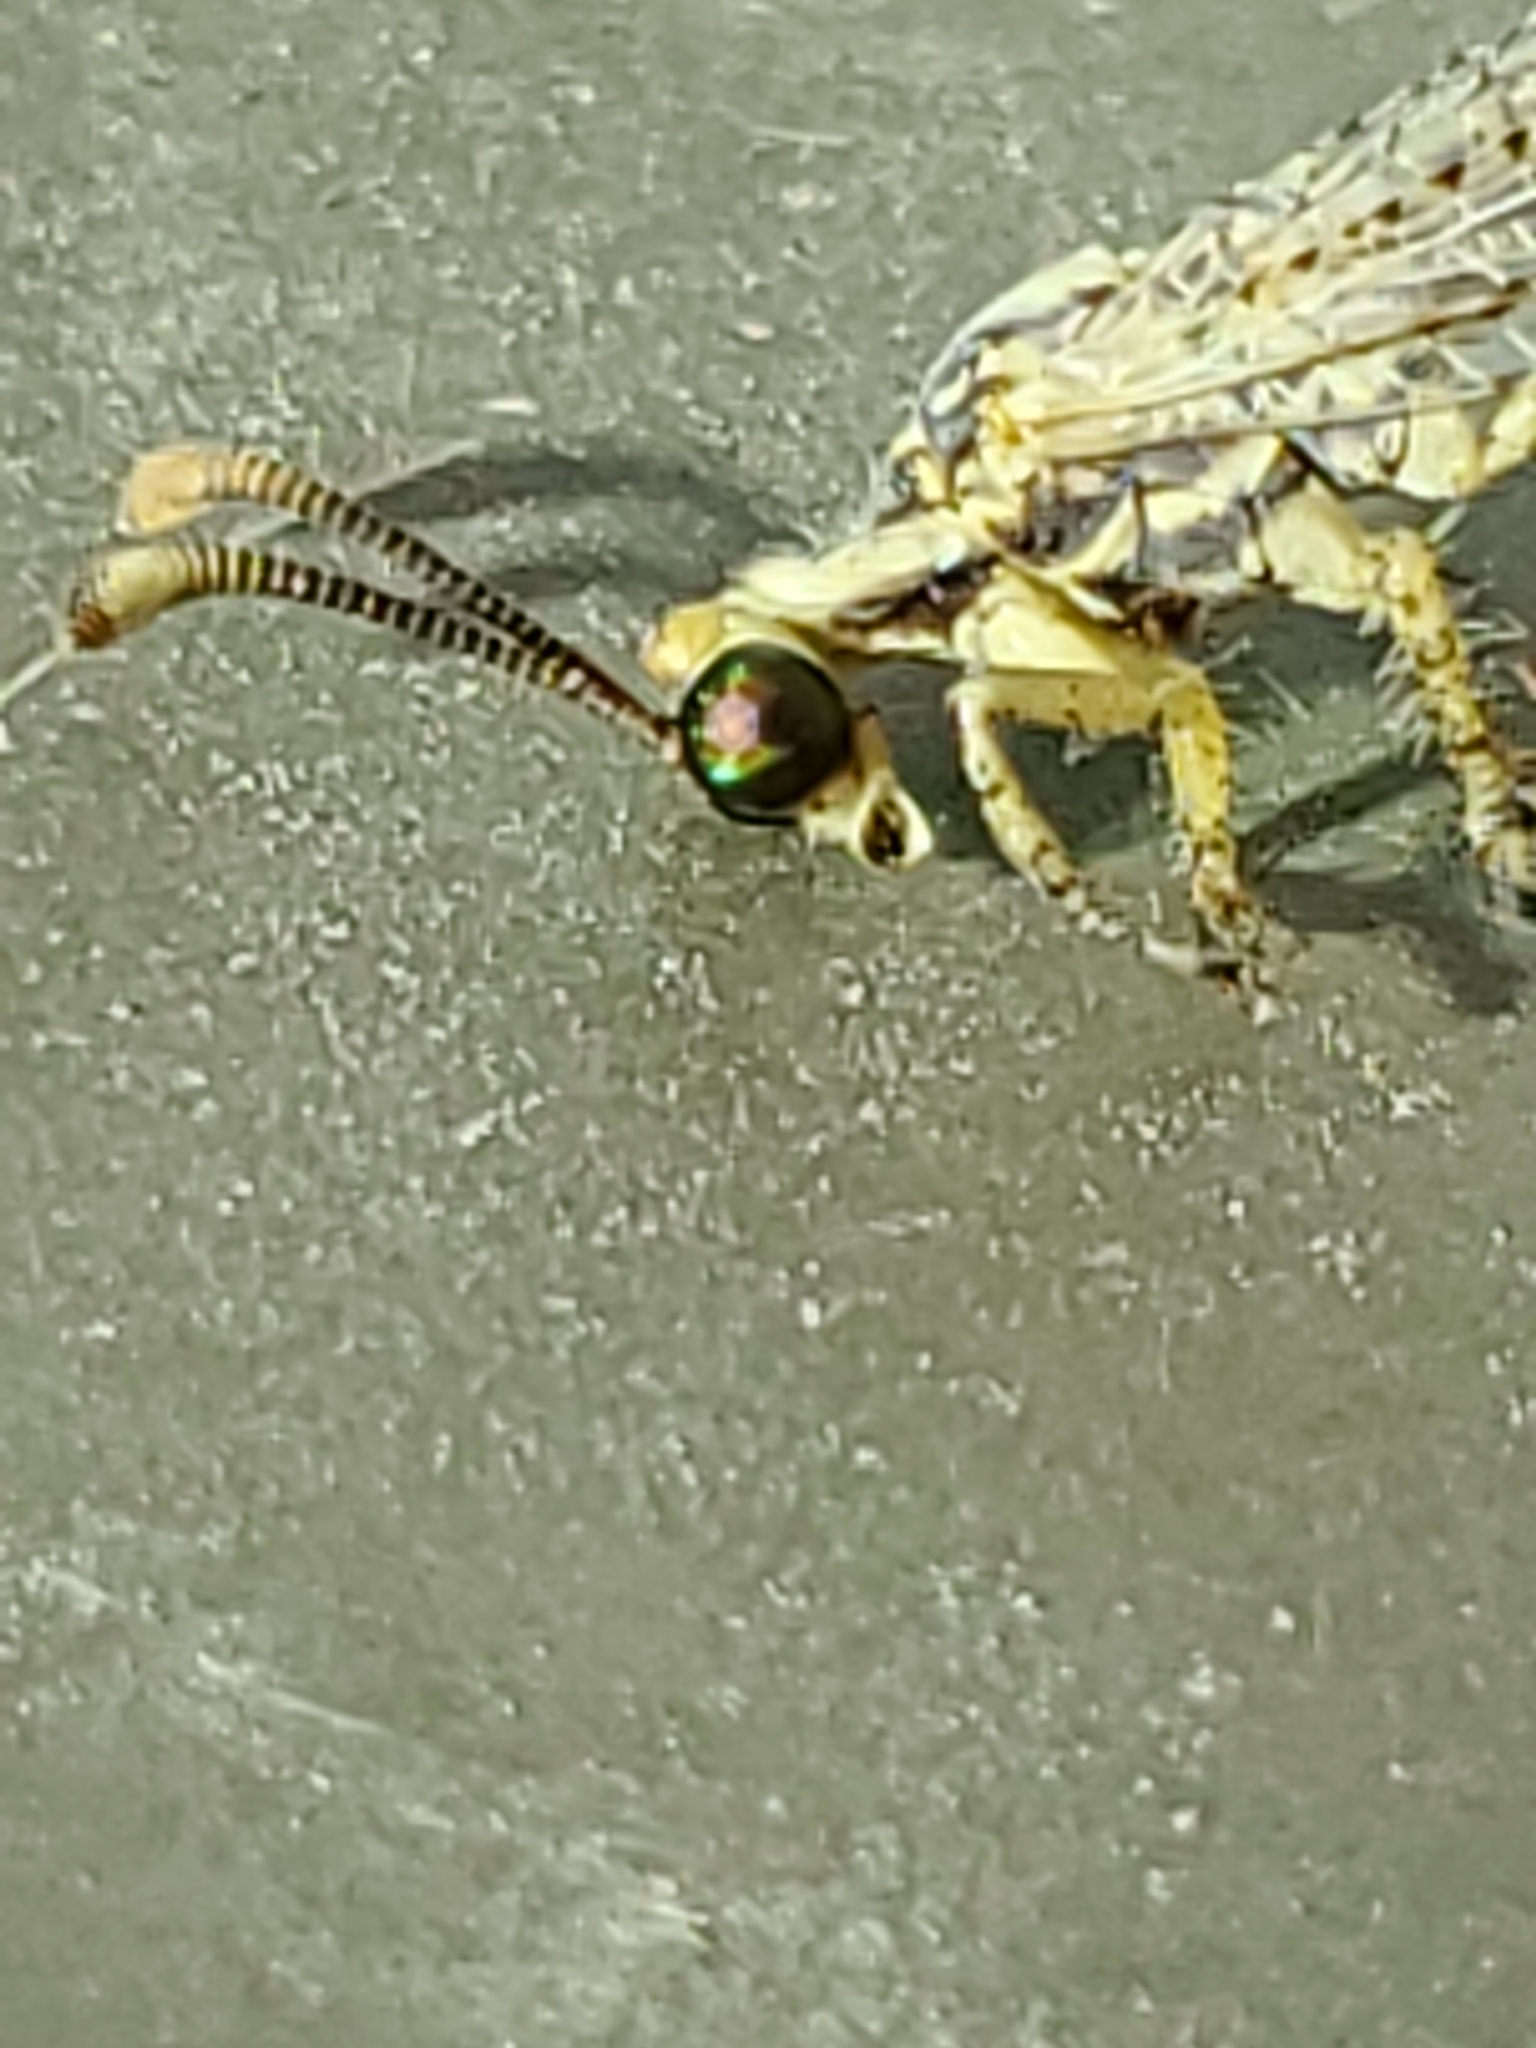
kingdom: Animalia
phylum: Arthropoda
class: Insecta
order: Neuroptera
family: Myrmeleontidae
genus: Brachynemurus
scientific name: Brachynemurus abdominalis
